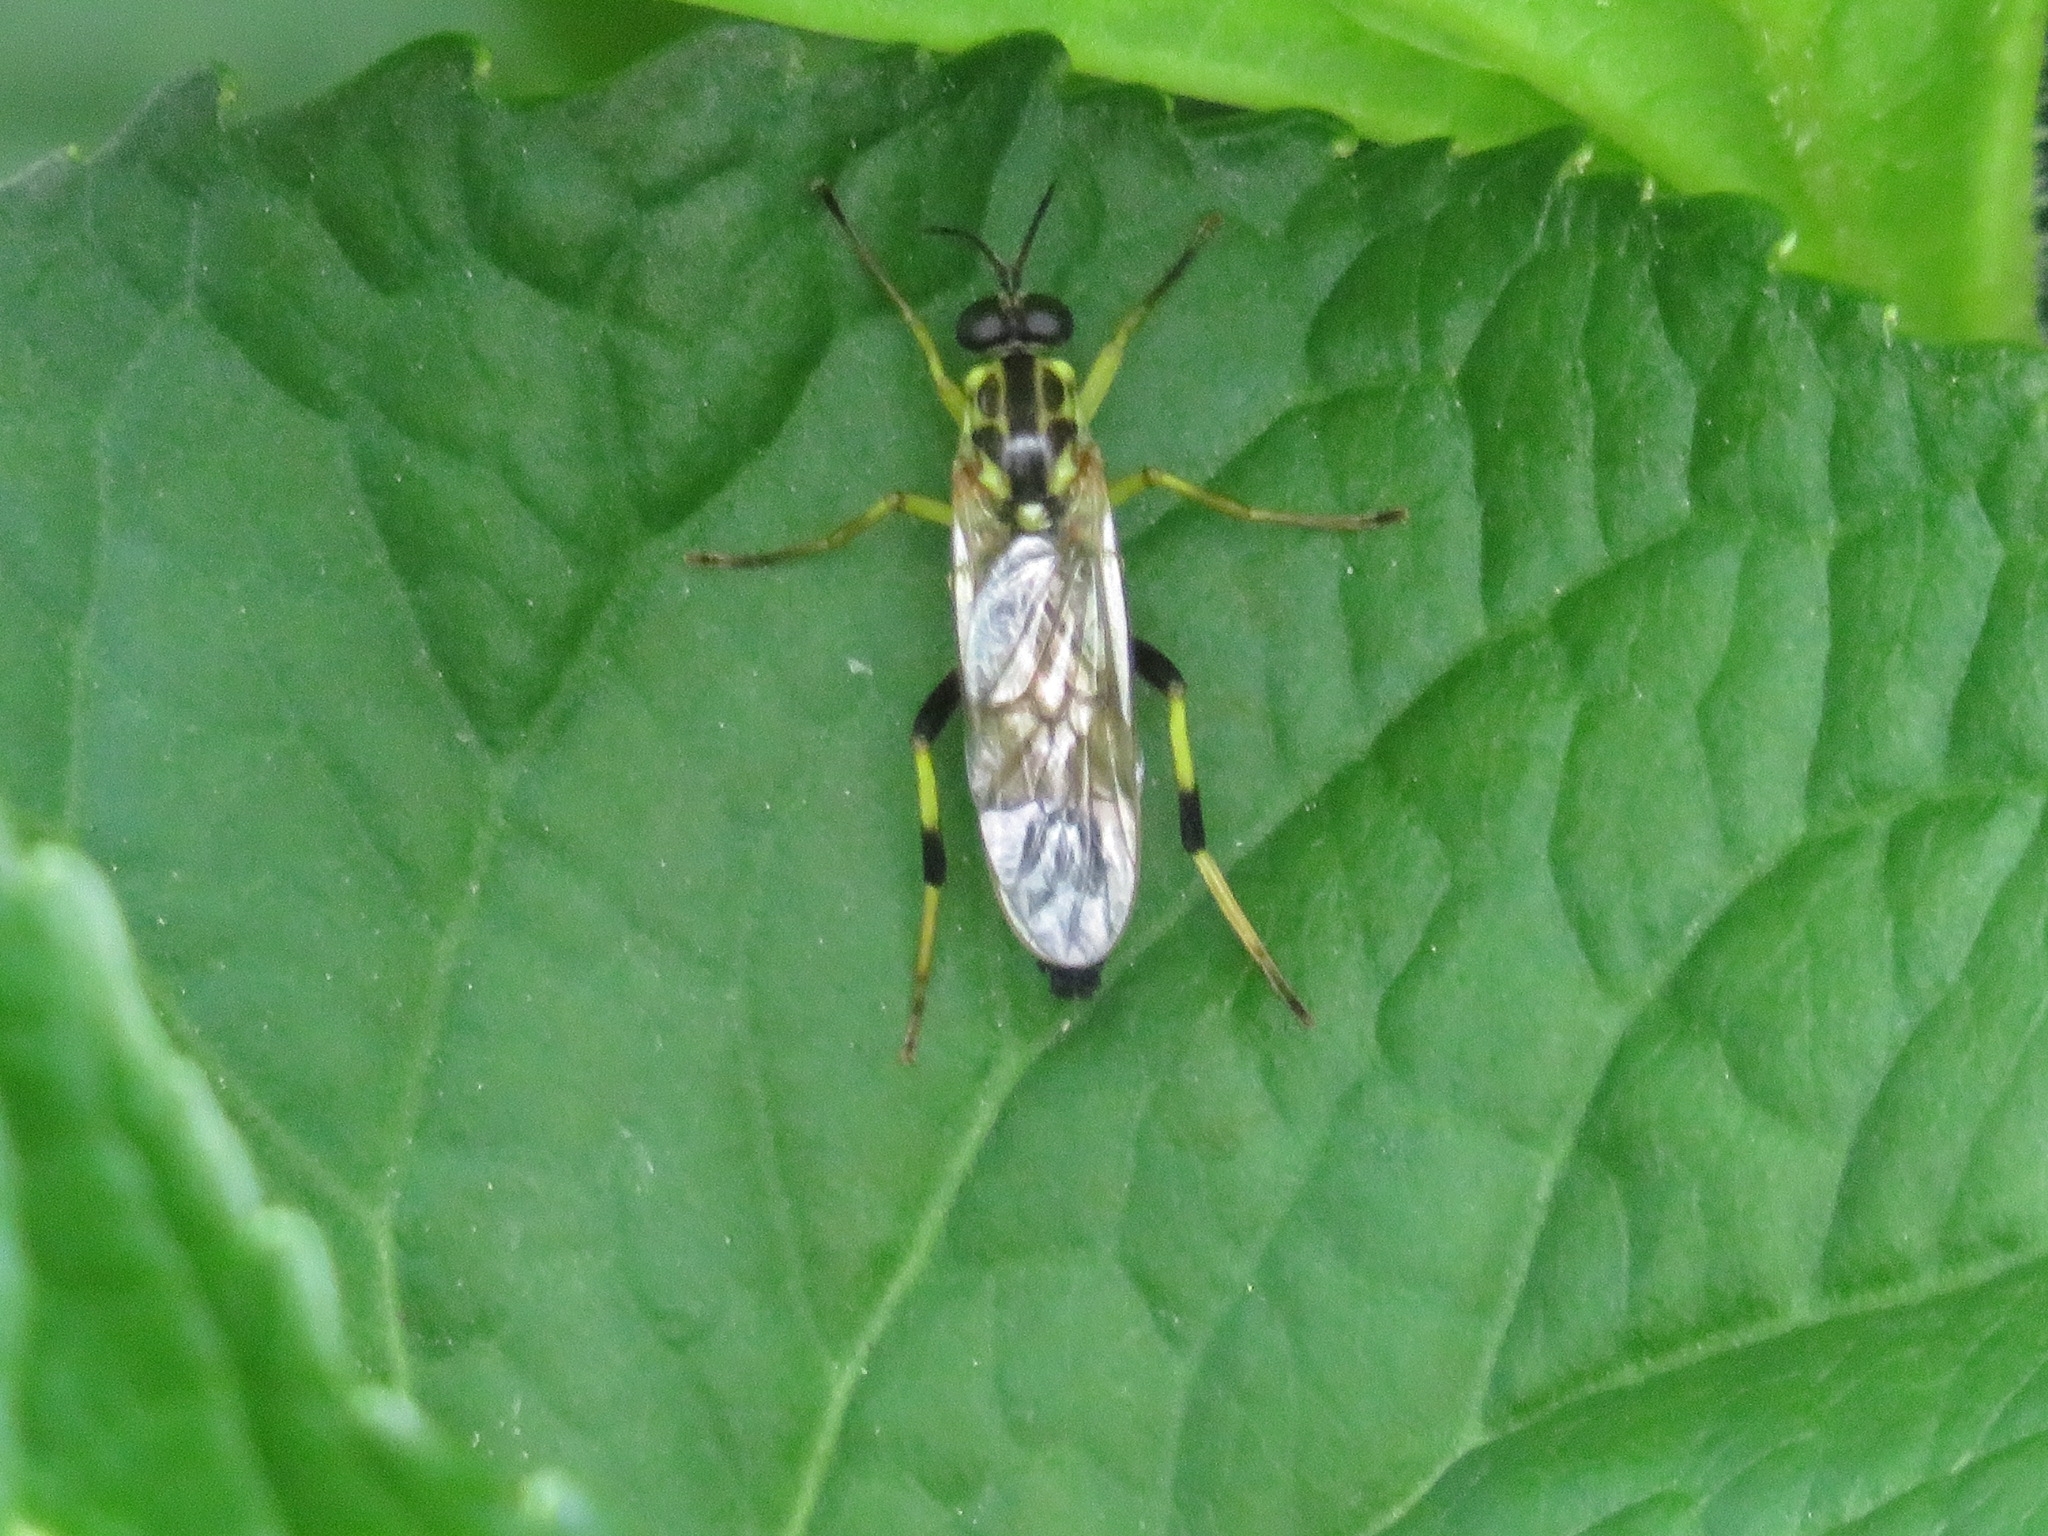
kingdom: Animalia
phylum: Arthropoda
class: Insecta
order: Diptera
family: Xylomyidae
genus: Xylomya
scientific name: Xylomya terminalis
